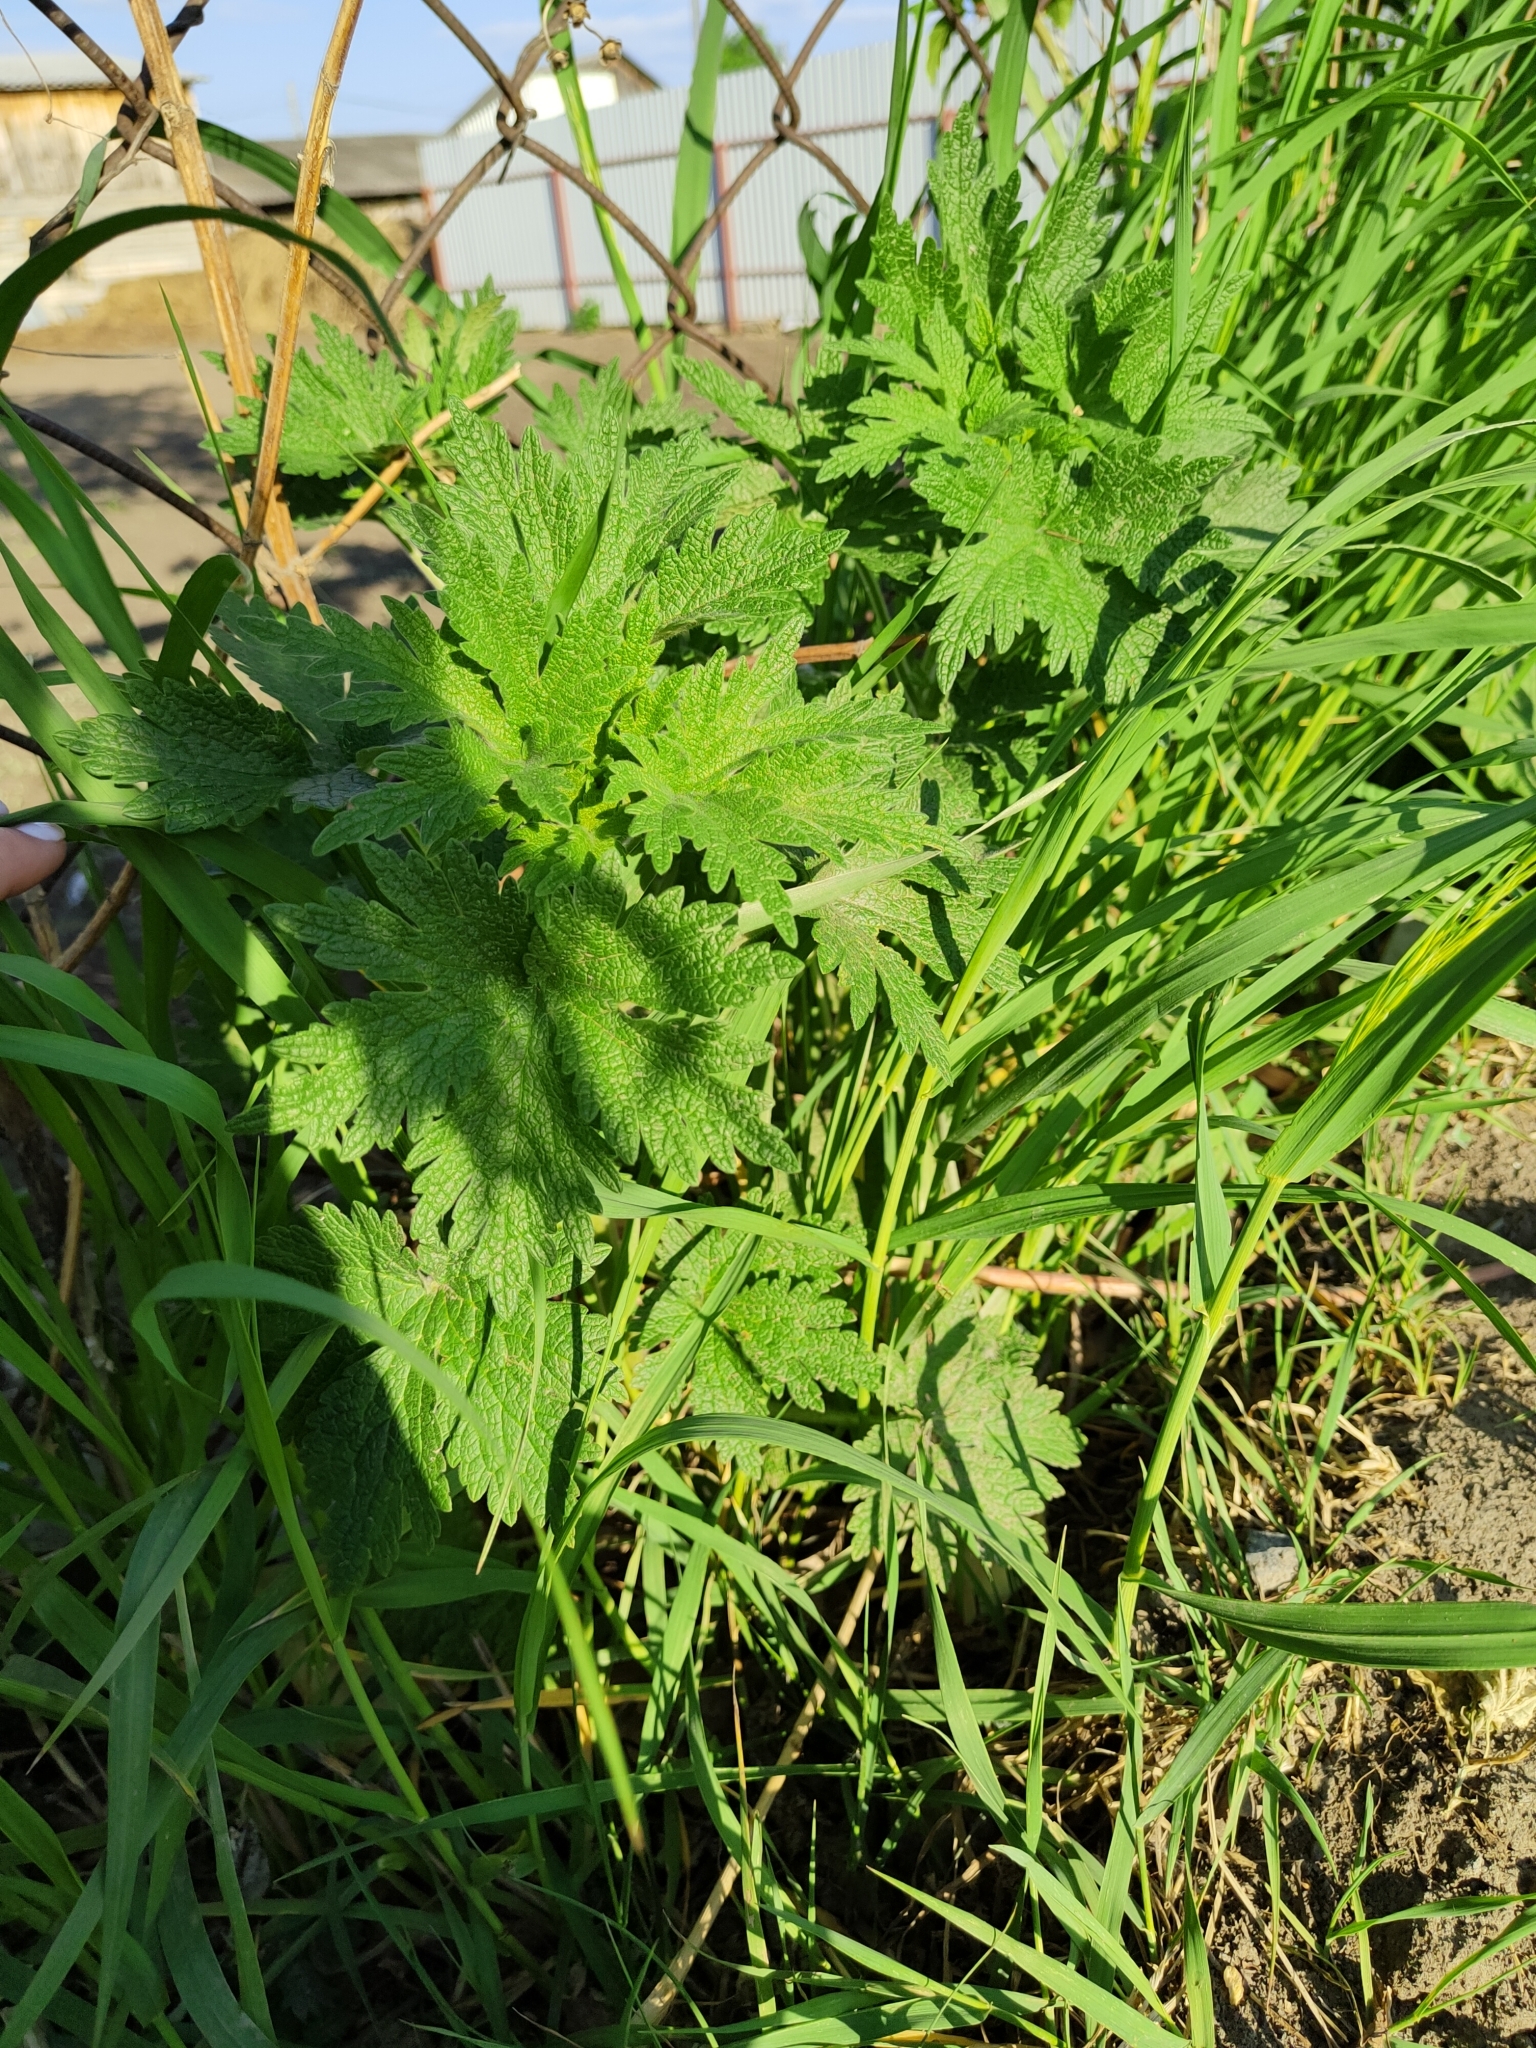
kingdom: Plantae
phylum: Tracheophyta
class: Magnoliopsida
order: Lamiales
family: Lamiaceae
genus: Leonurus
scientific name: Leonurus quinquelobatus
